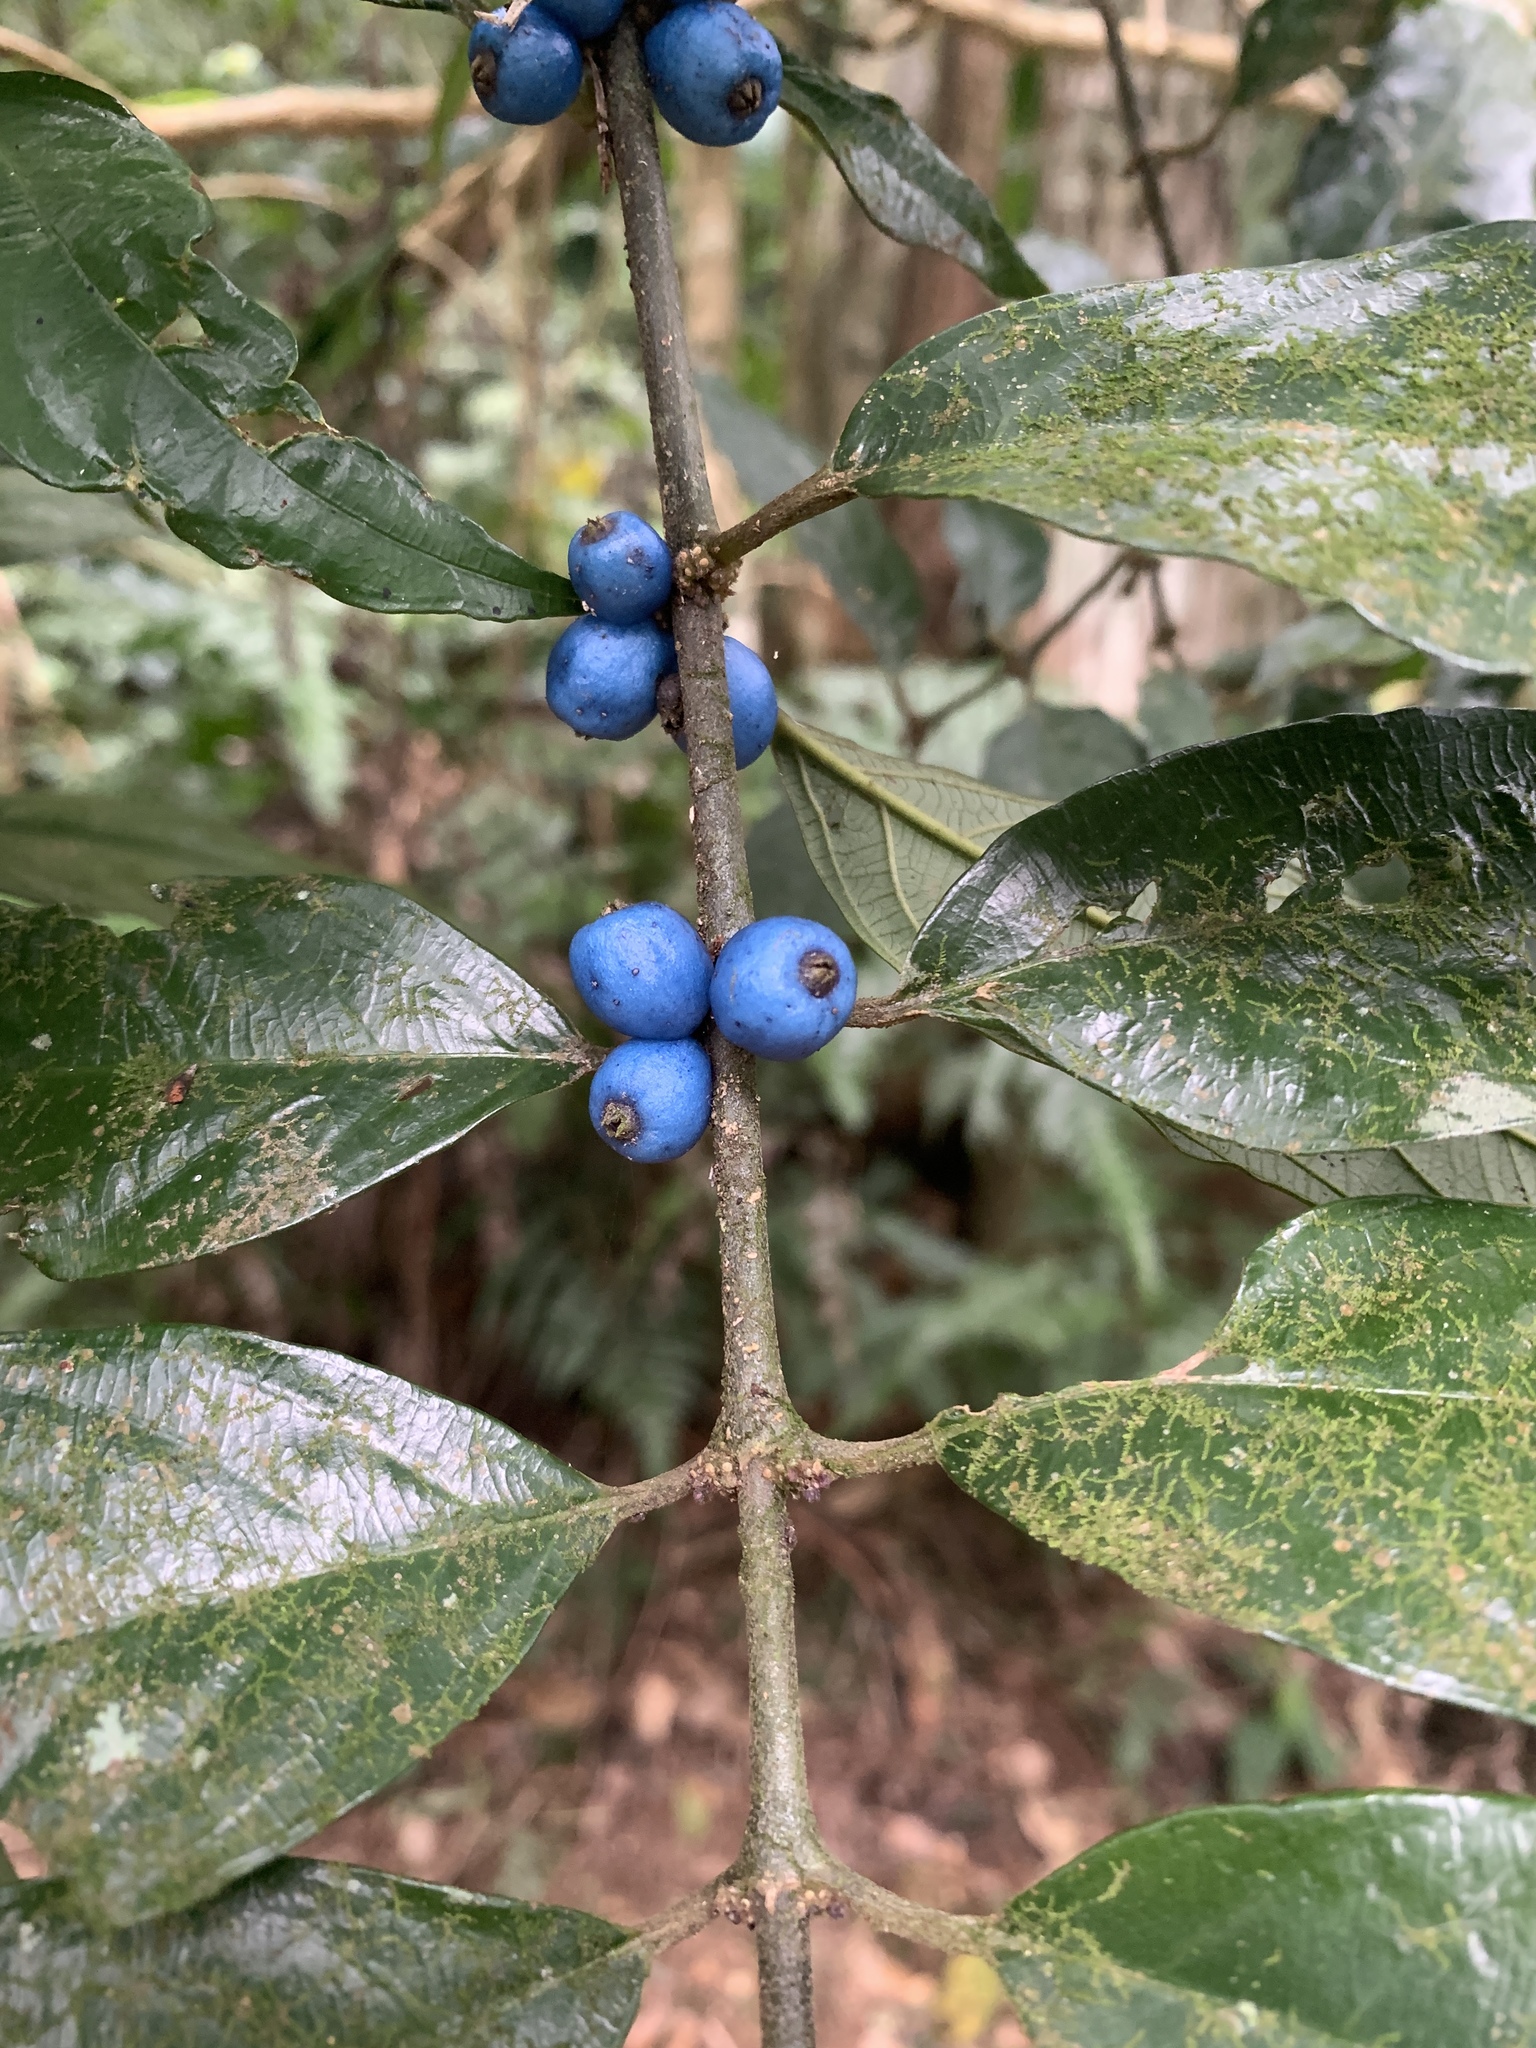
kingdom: Plantae
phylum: Tracheophyta
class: Magnoliopsida
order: Gentianales
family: Rubiaceae
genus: Lasianthus
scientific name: Lasianthus fordii
